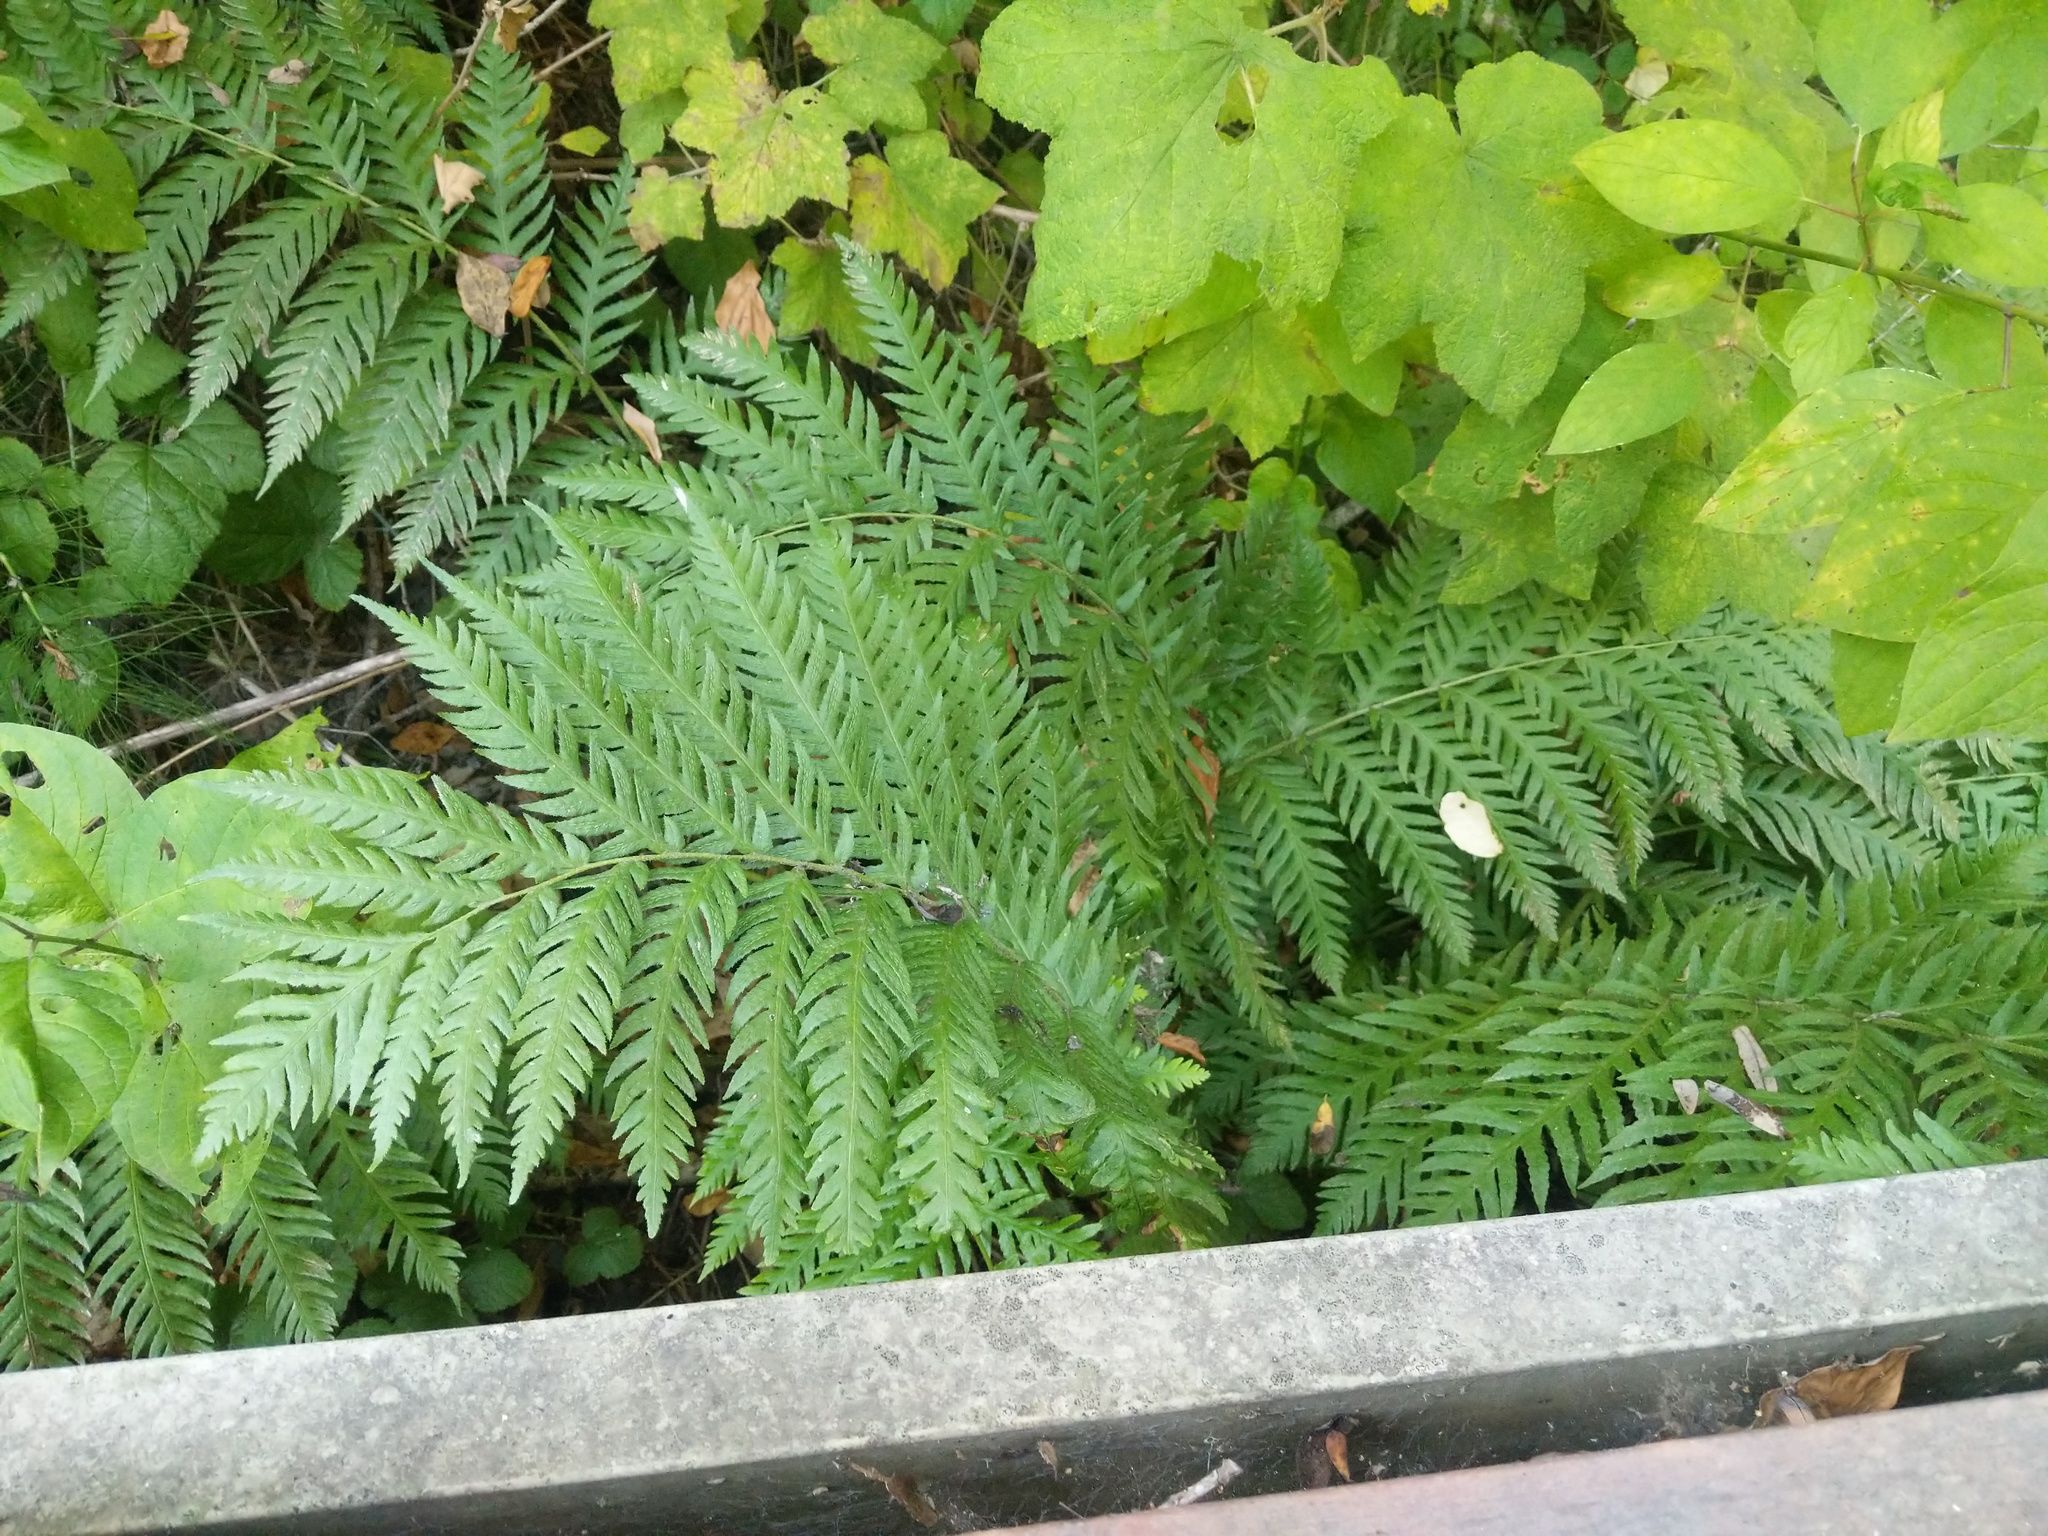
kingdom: Plantae
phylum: Tracheophyta
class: Polypodiopsida
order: Polypodiales
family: Blechnaceae
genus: Woodwardia
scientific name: Woodwardia fimbriata
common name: Giant chain fern
